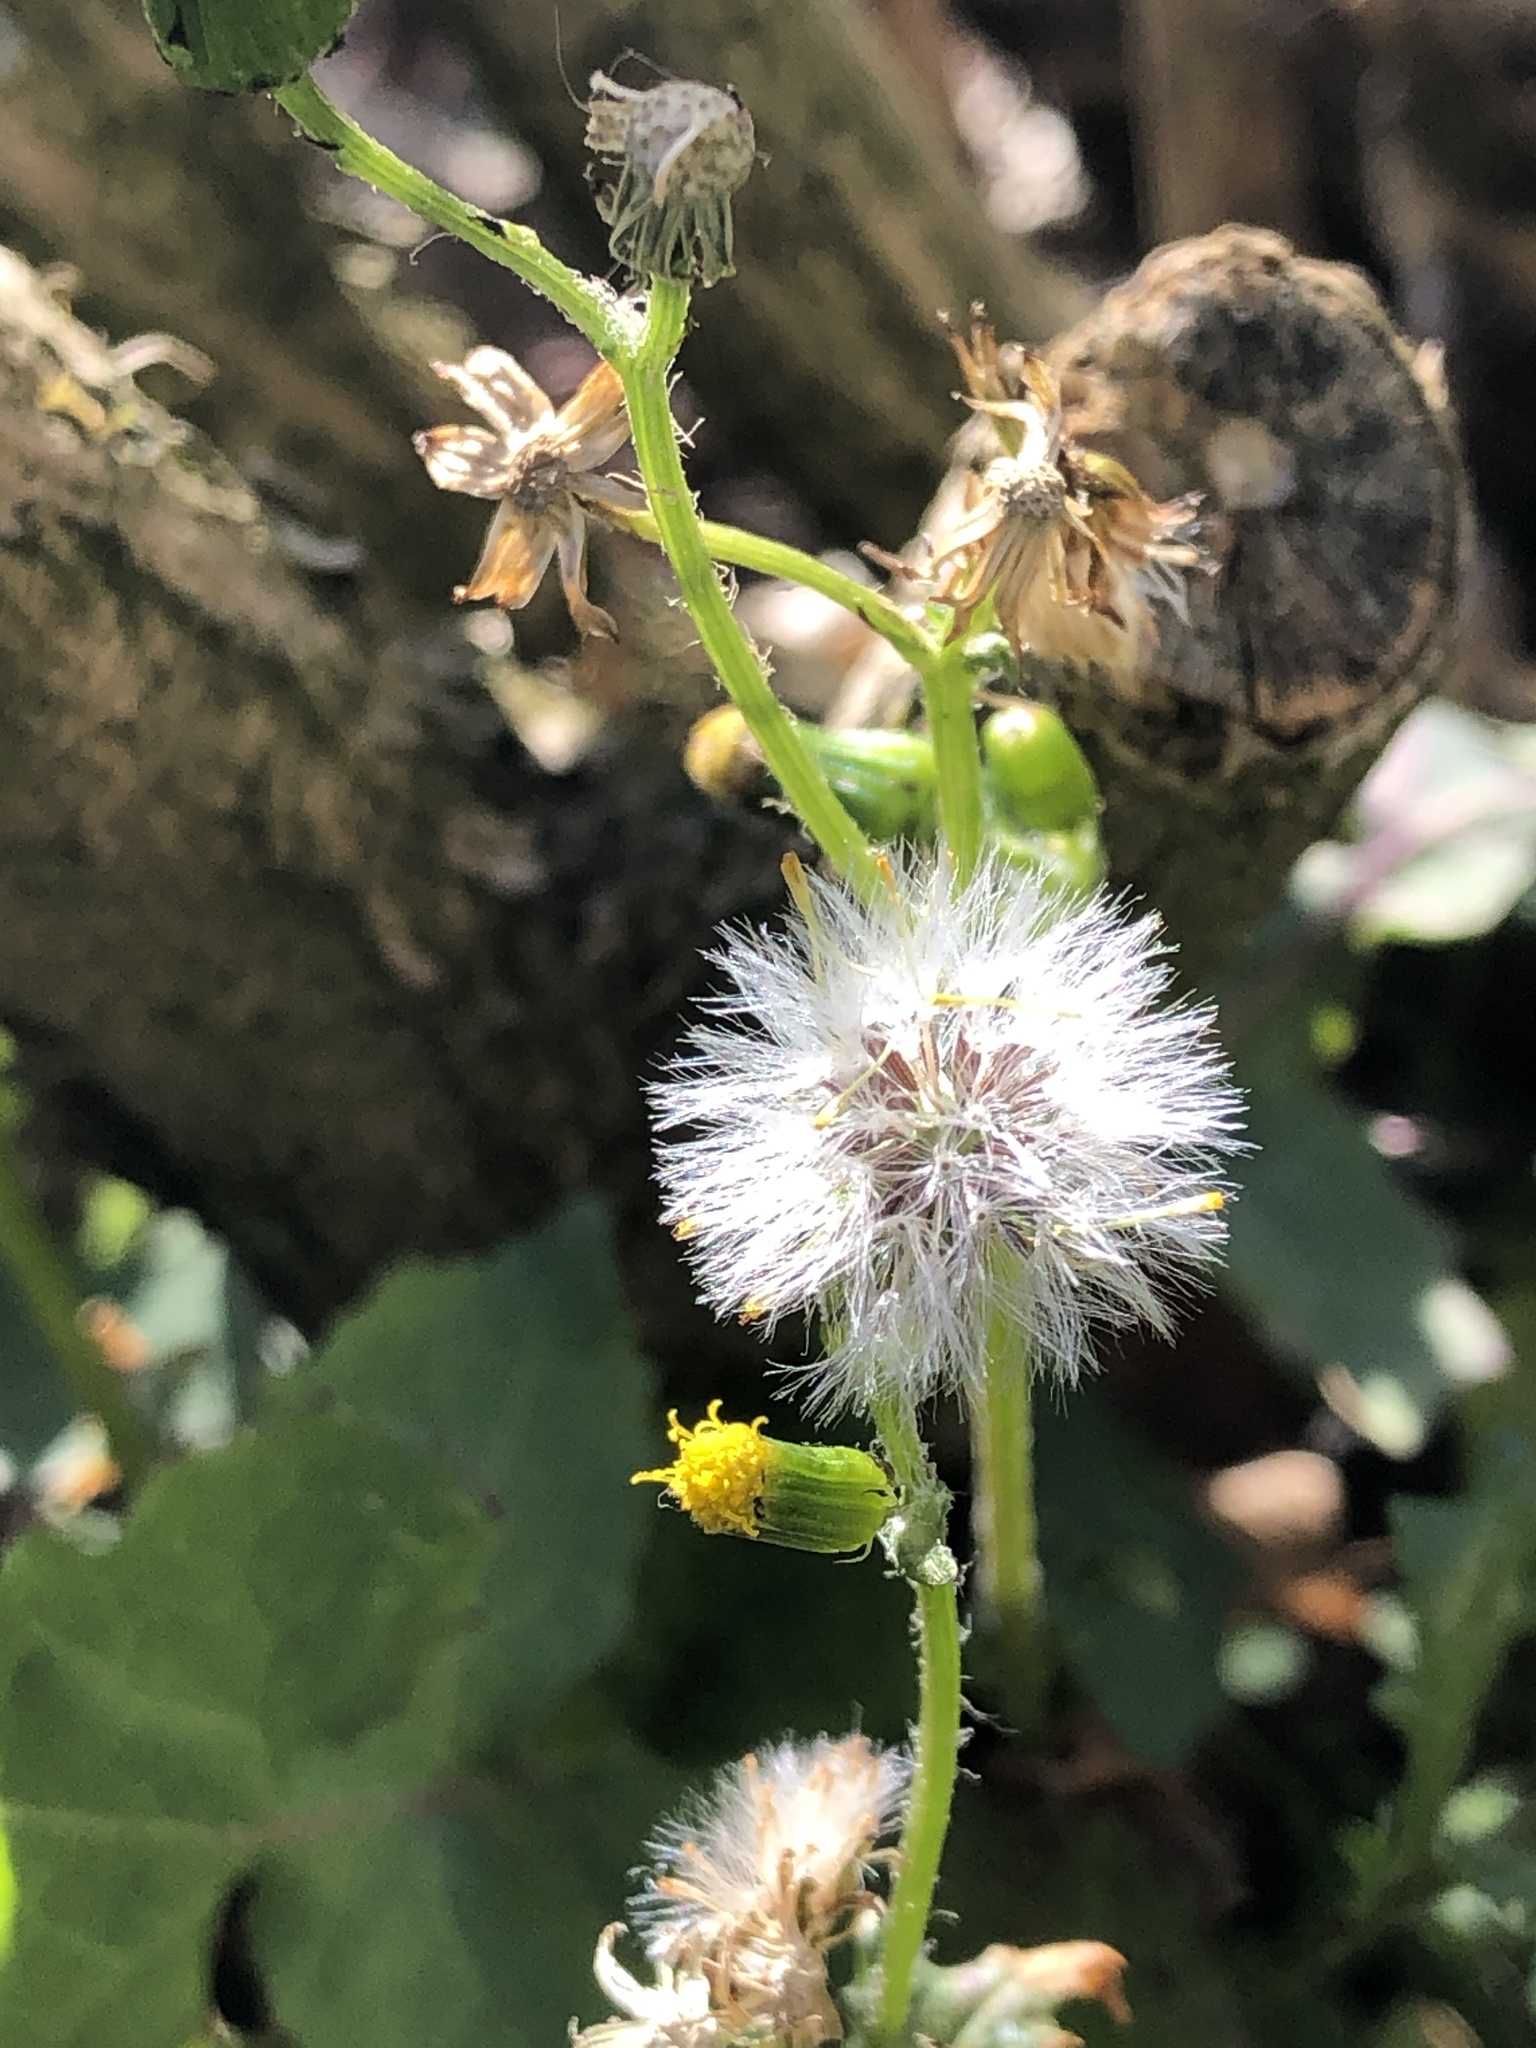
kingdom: Plantae
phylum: Tracheophyta
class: Magnoliopsida
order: Asterales
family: Asteraceae
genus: Senecio
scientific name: Senecio vulgaris
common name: Old-man-in-the-spring
